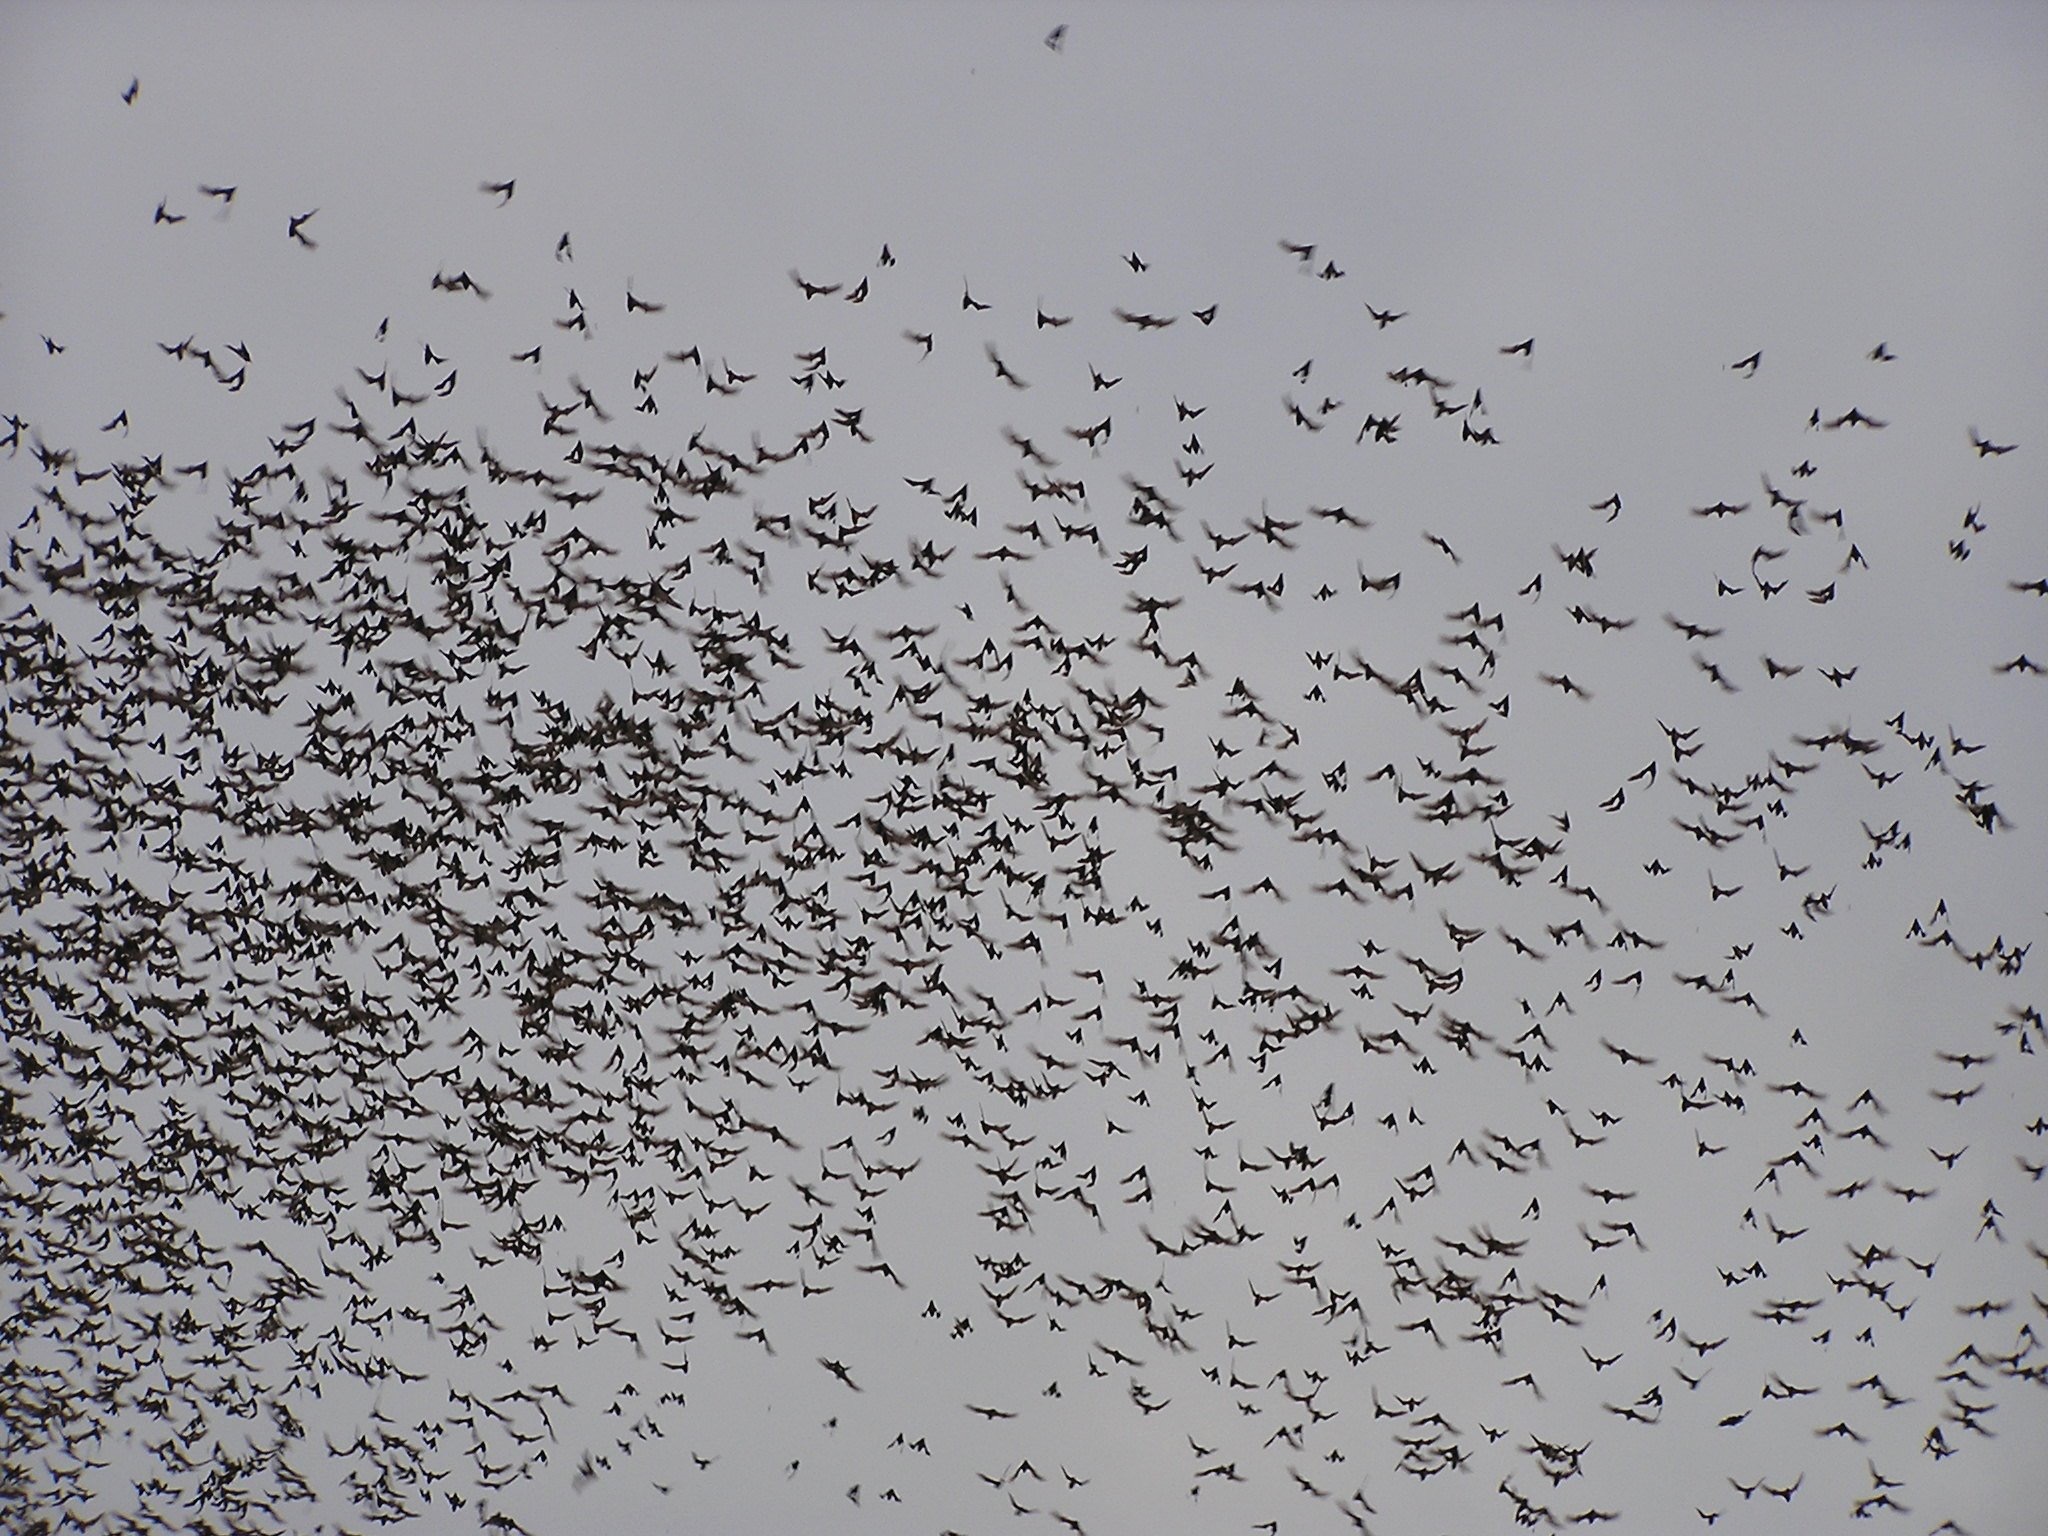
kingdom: Animalia
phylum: Chordata
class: Mammalia
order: Chiroptera
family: Molossidae
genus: Mops
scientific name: Mops
